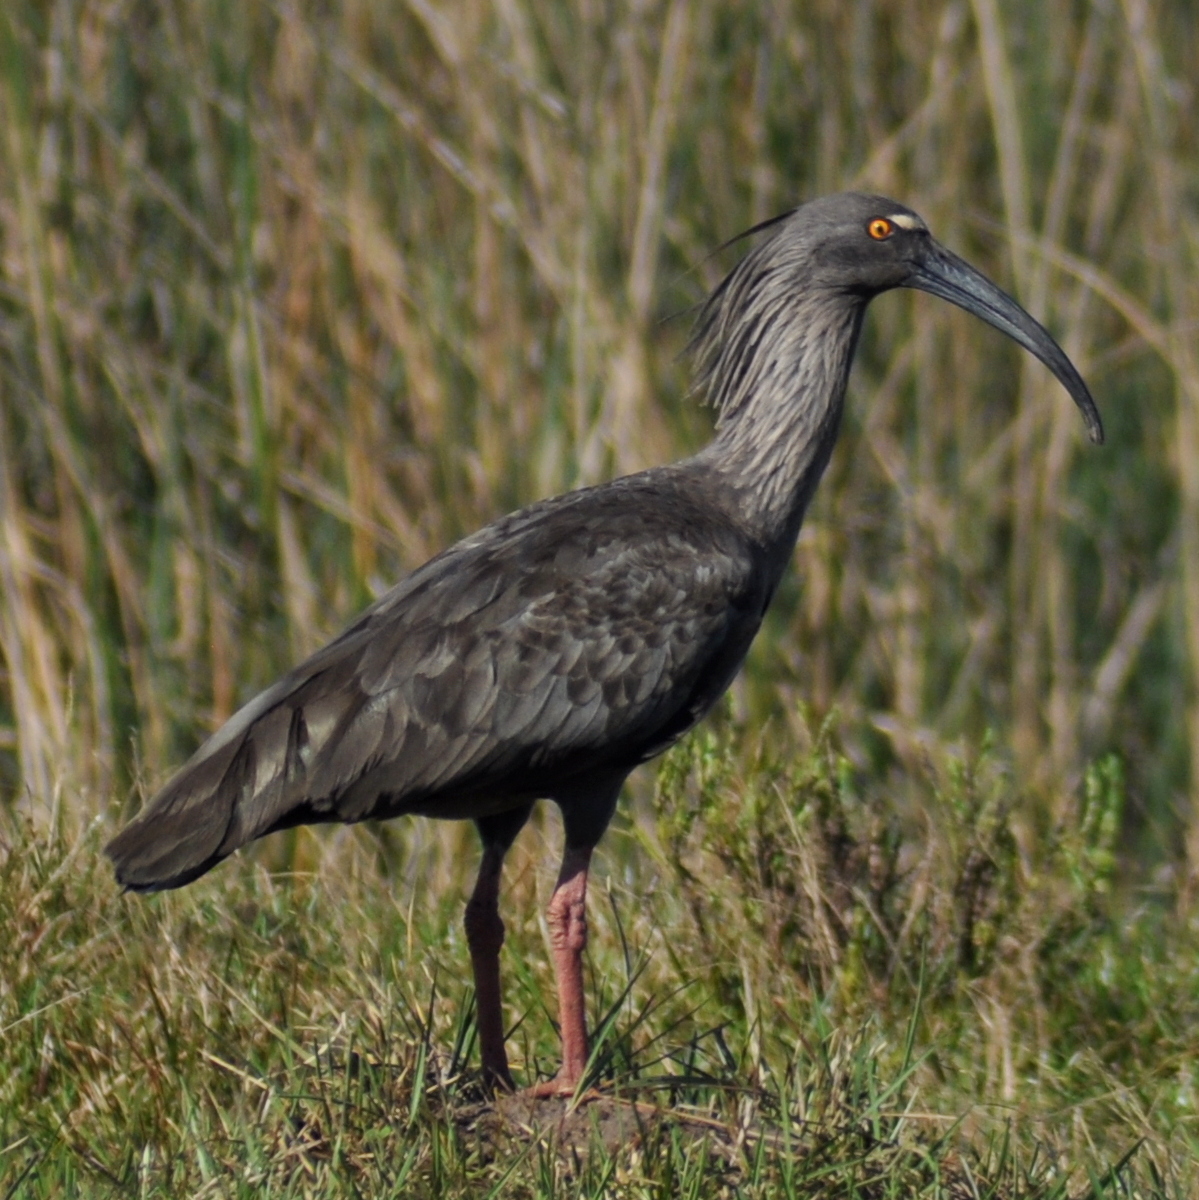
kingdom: Animalia
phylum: Chordata
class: Aves
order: Pelecaniformes
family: Threskiornithidae
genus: Theristicus
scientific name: Theristicus caerulescens
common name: Plumbeous ibis
